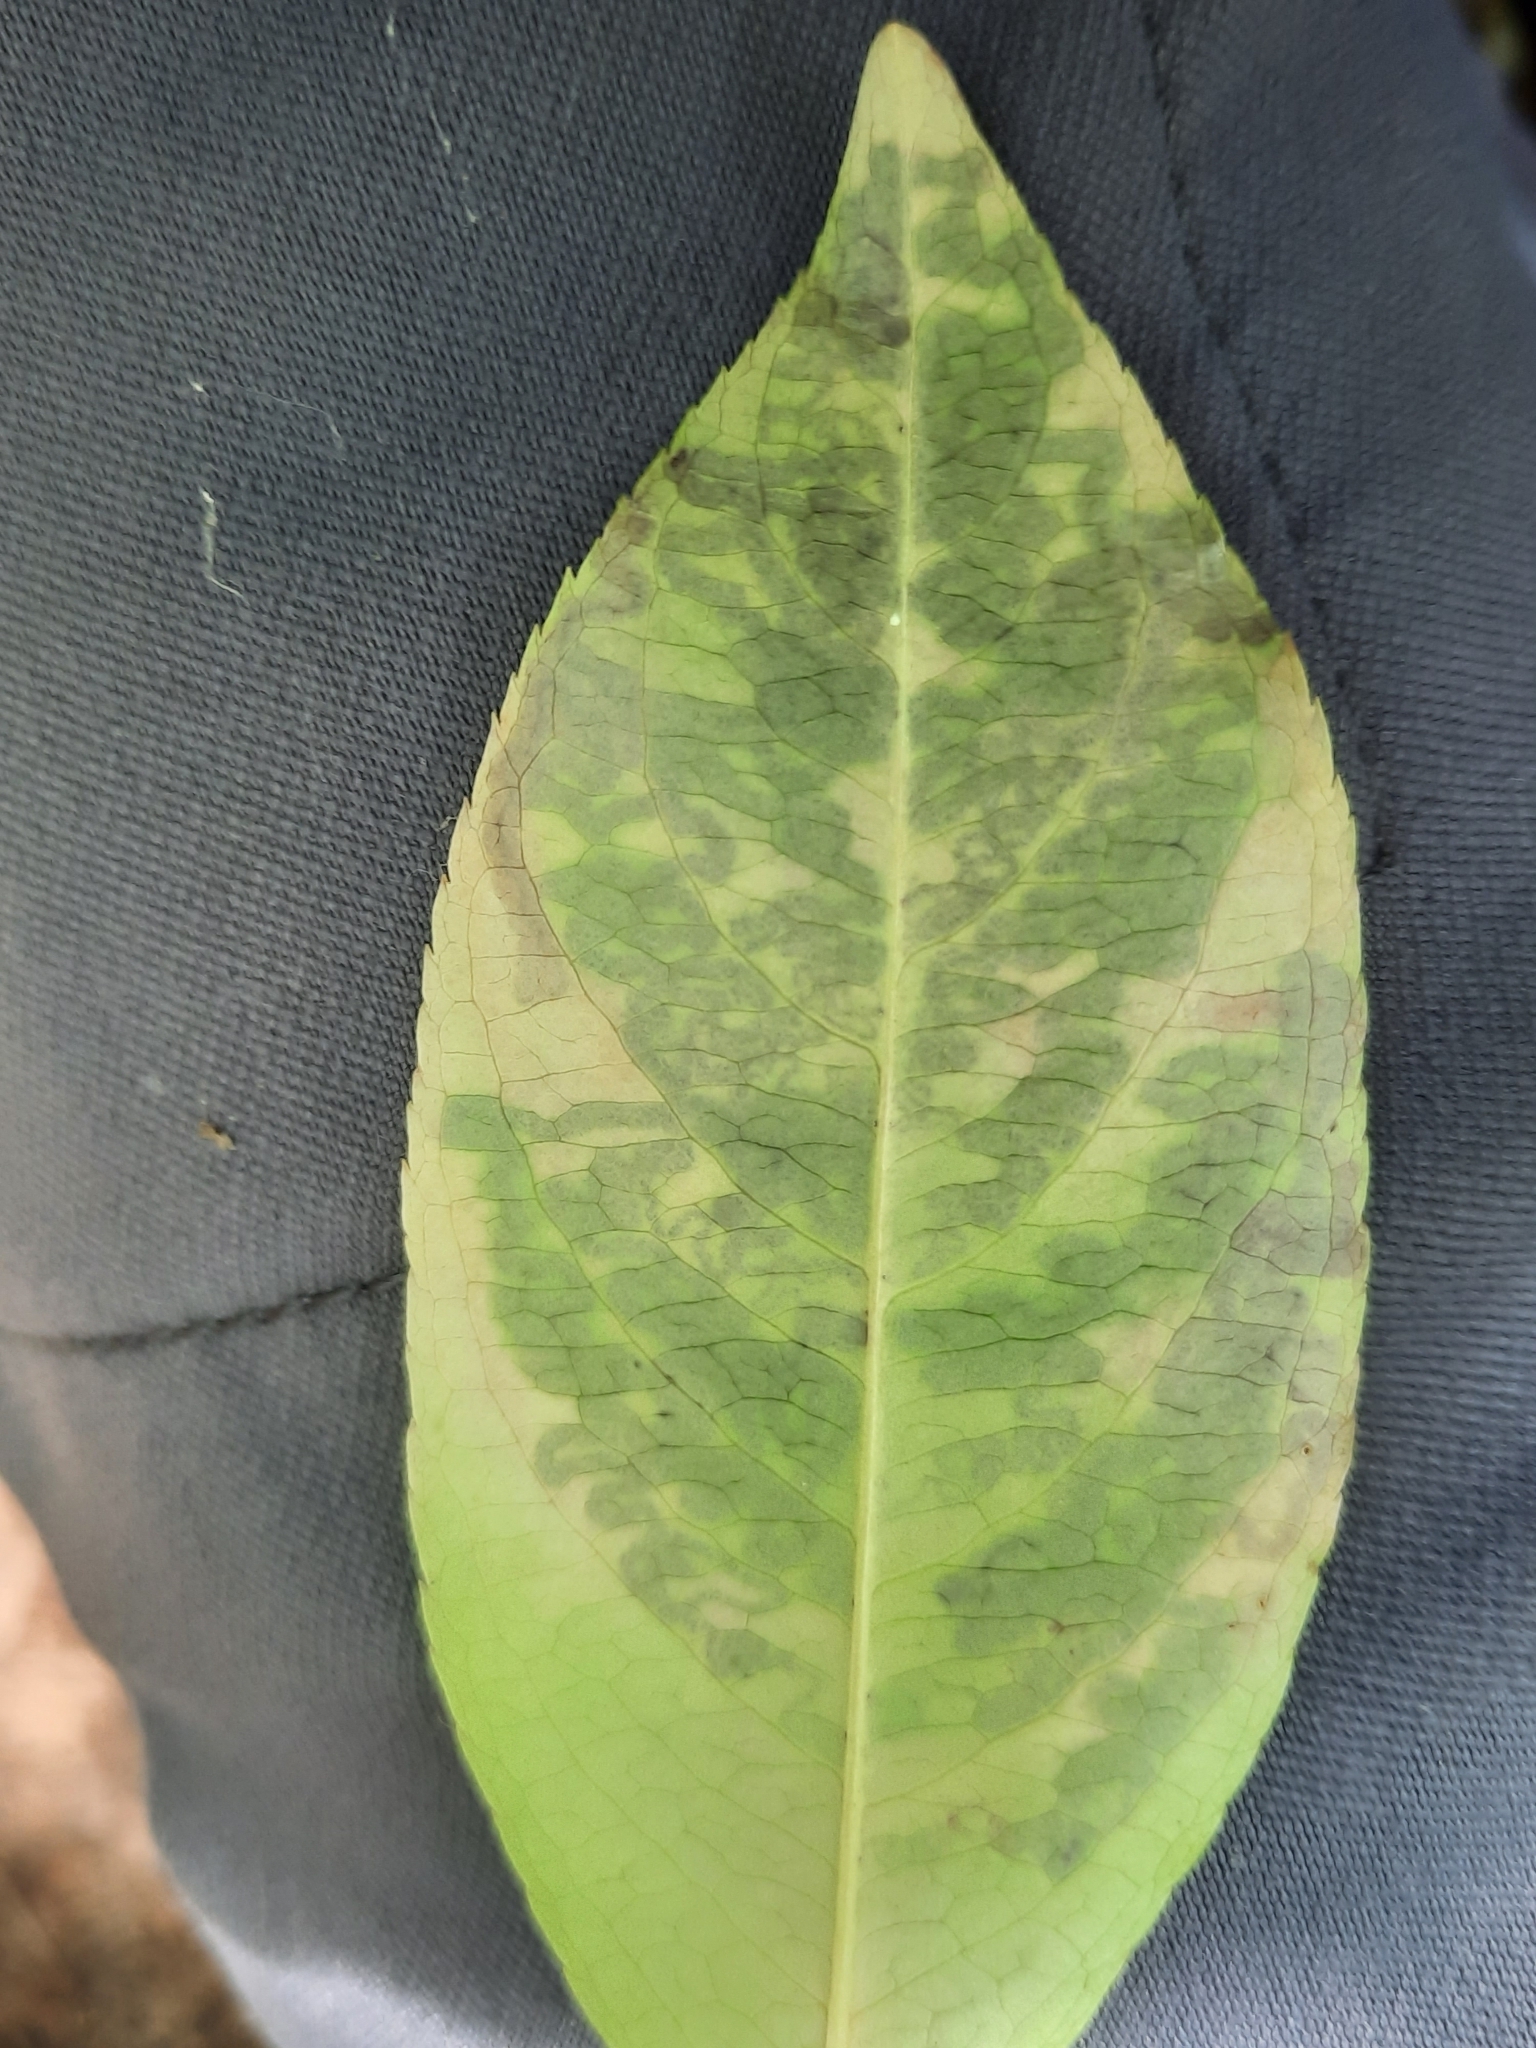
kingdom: Animalia
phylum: Arthropoda
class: Insecta
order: Lepidoptera
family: Nepticulidae
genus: Stigmella
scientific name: Stigmella prunifoliella
